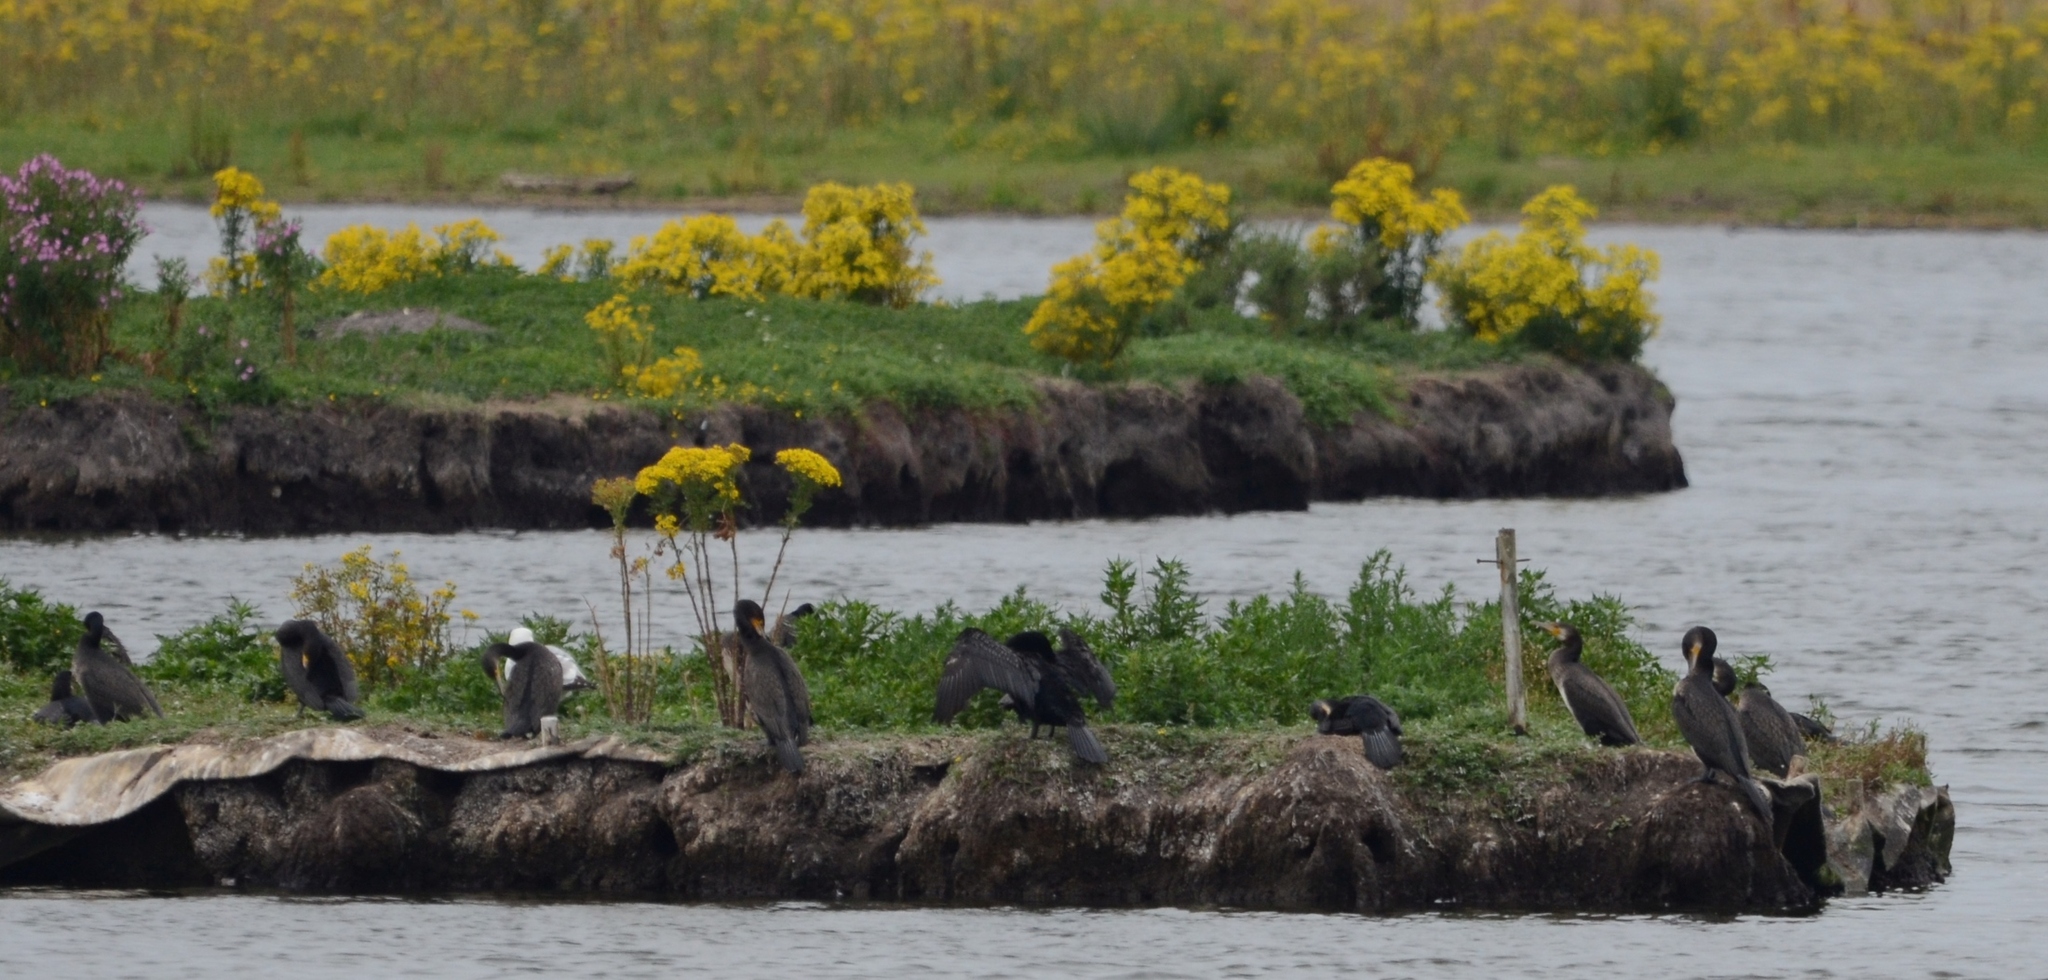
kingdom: Animalia
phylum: Chordata
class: Aves
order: Suliformes
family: Phalacrocoracidae
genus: Phalacrocorax
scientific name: Phalacrocorax carbo
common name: Great cormorant
